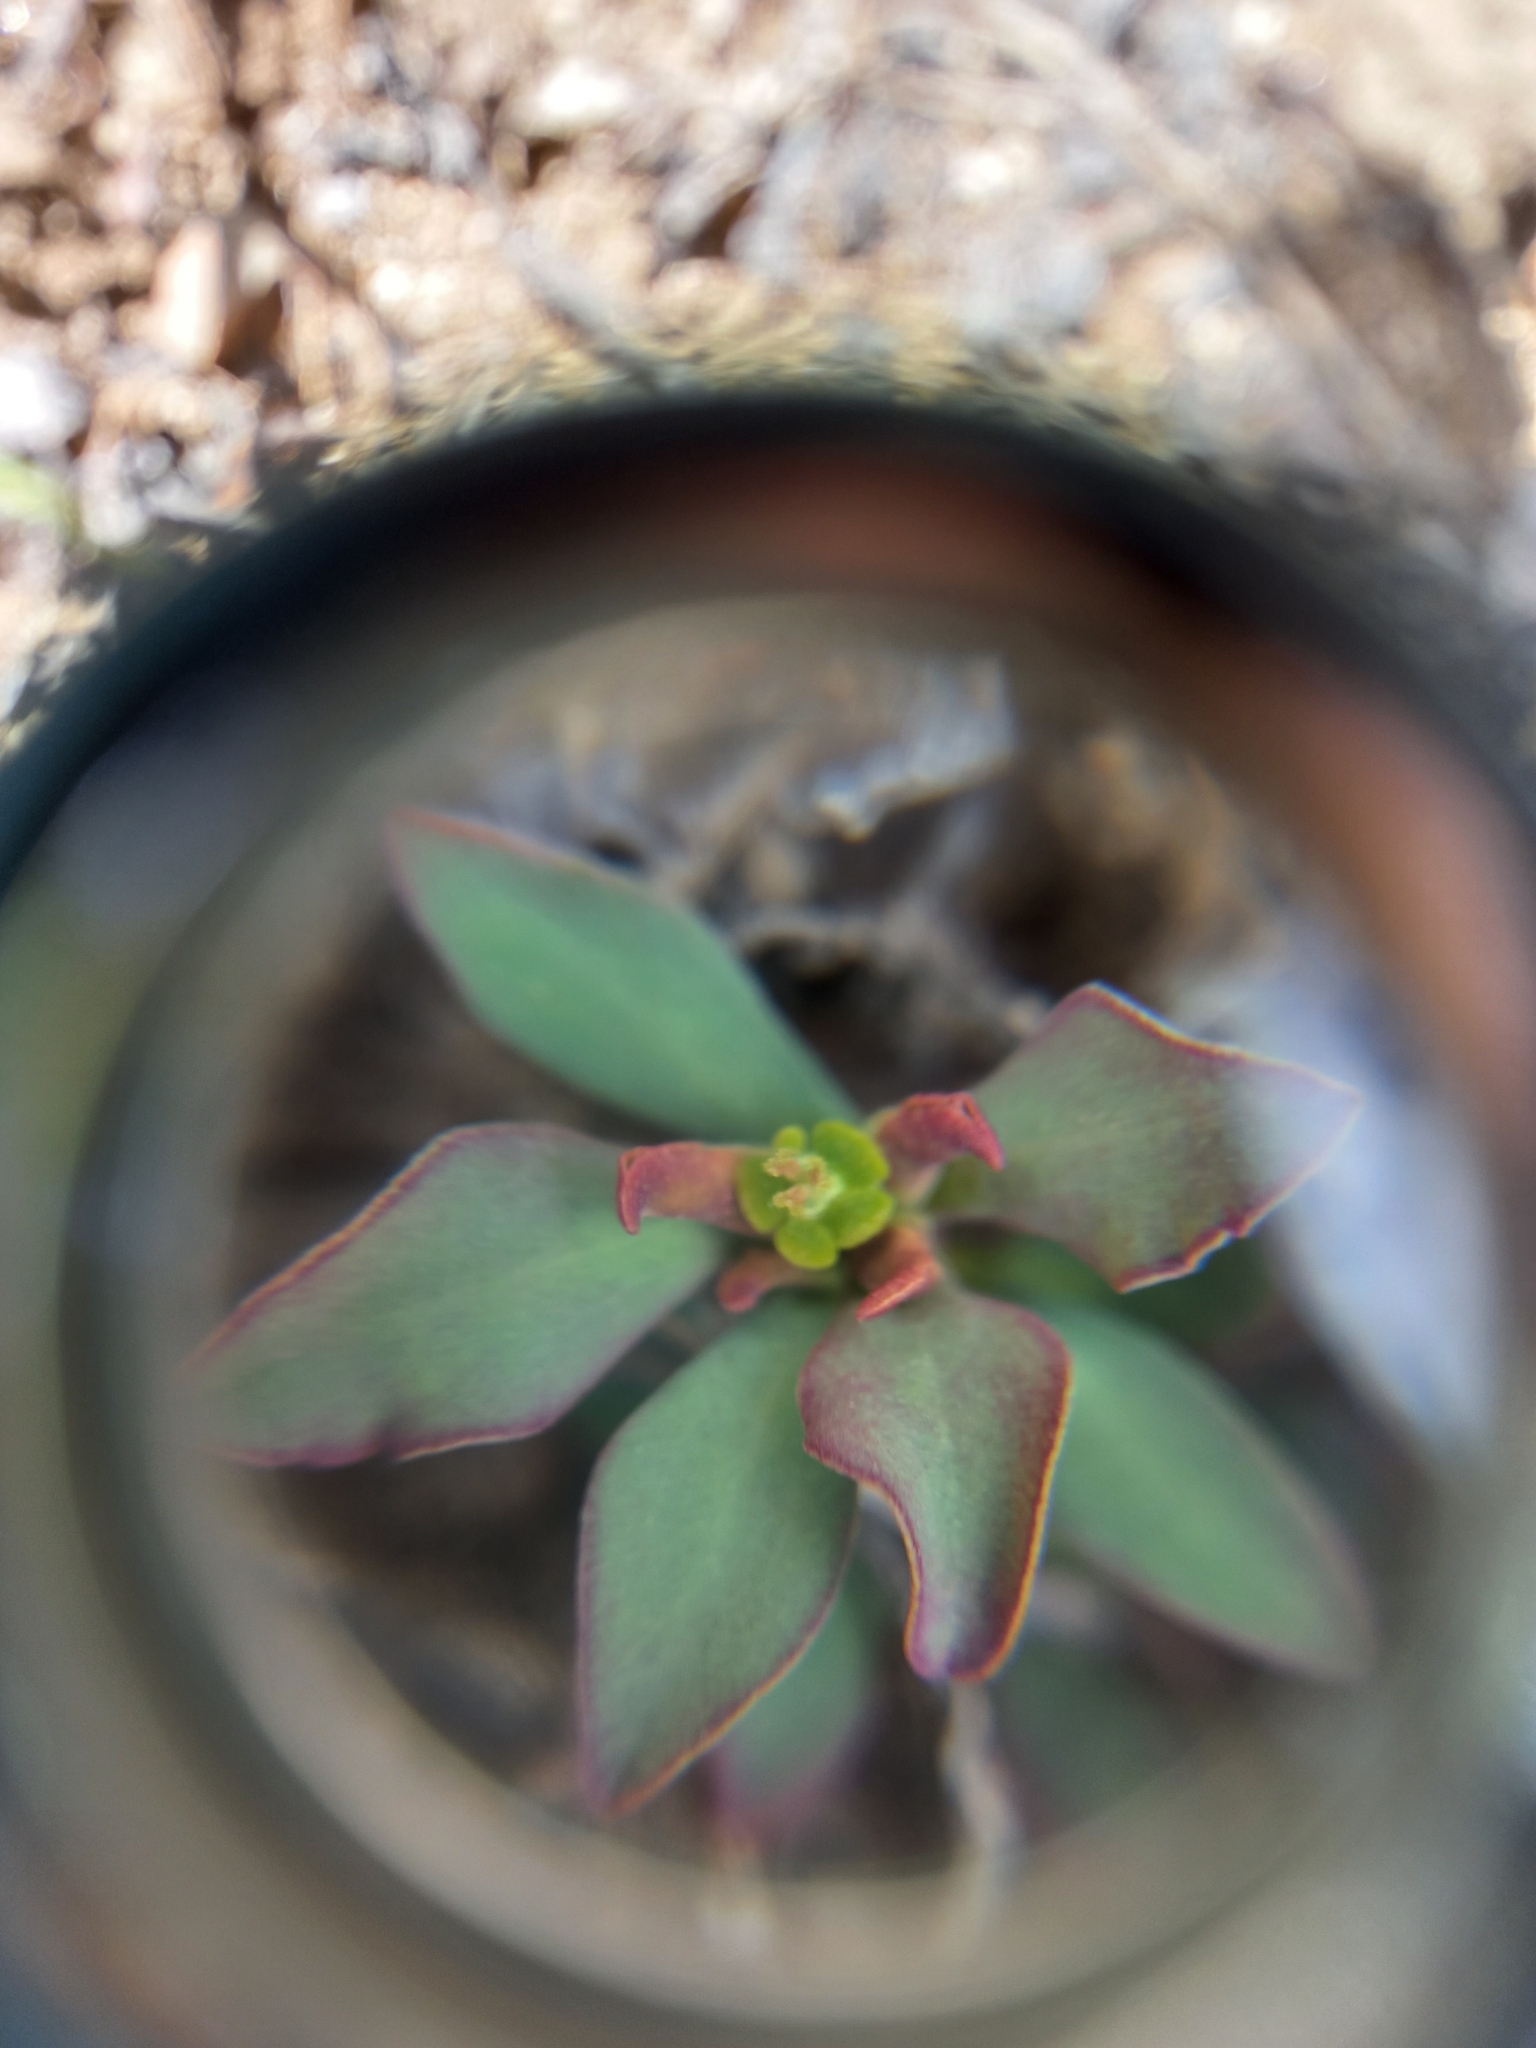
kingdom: Plantae
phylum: Tracheophyta
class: Magnoliopsida
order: Malpighiales
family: Euphorbiaceae
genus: Euphorbia
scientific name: Euphorbia collina
